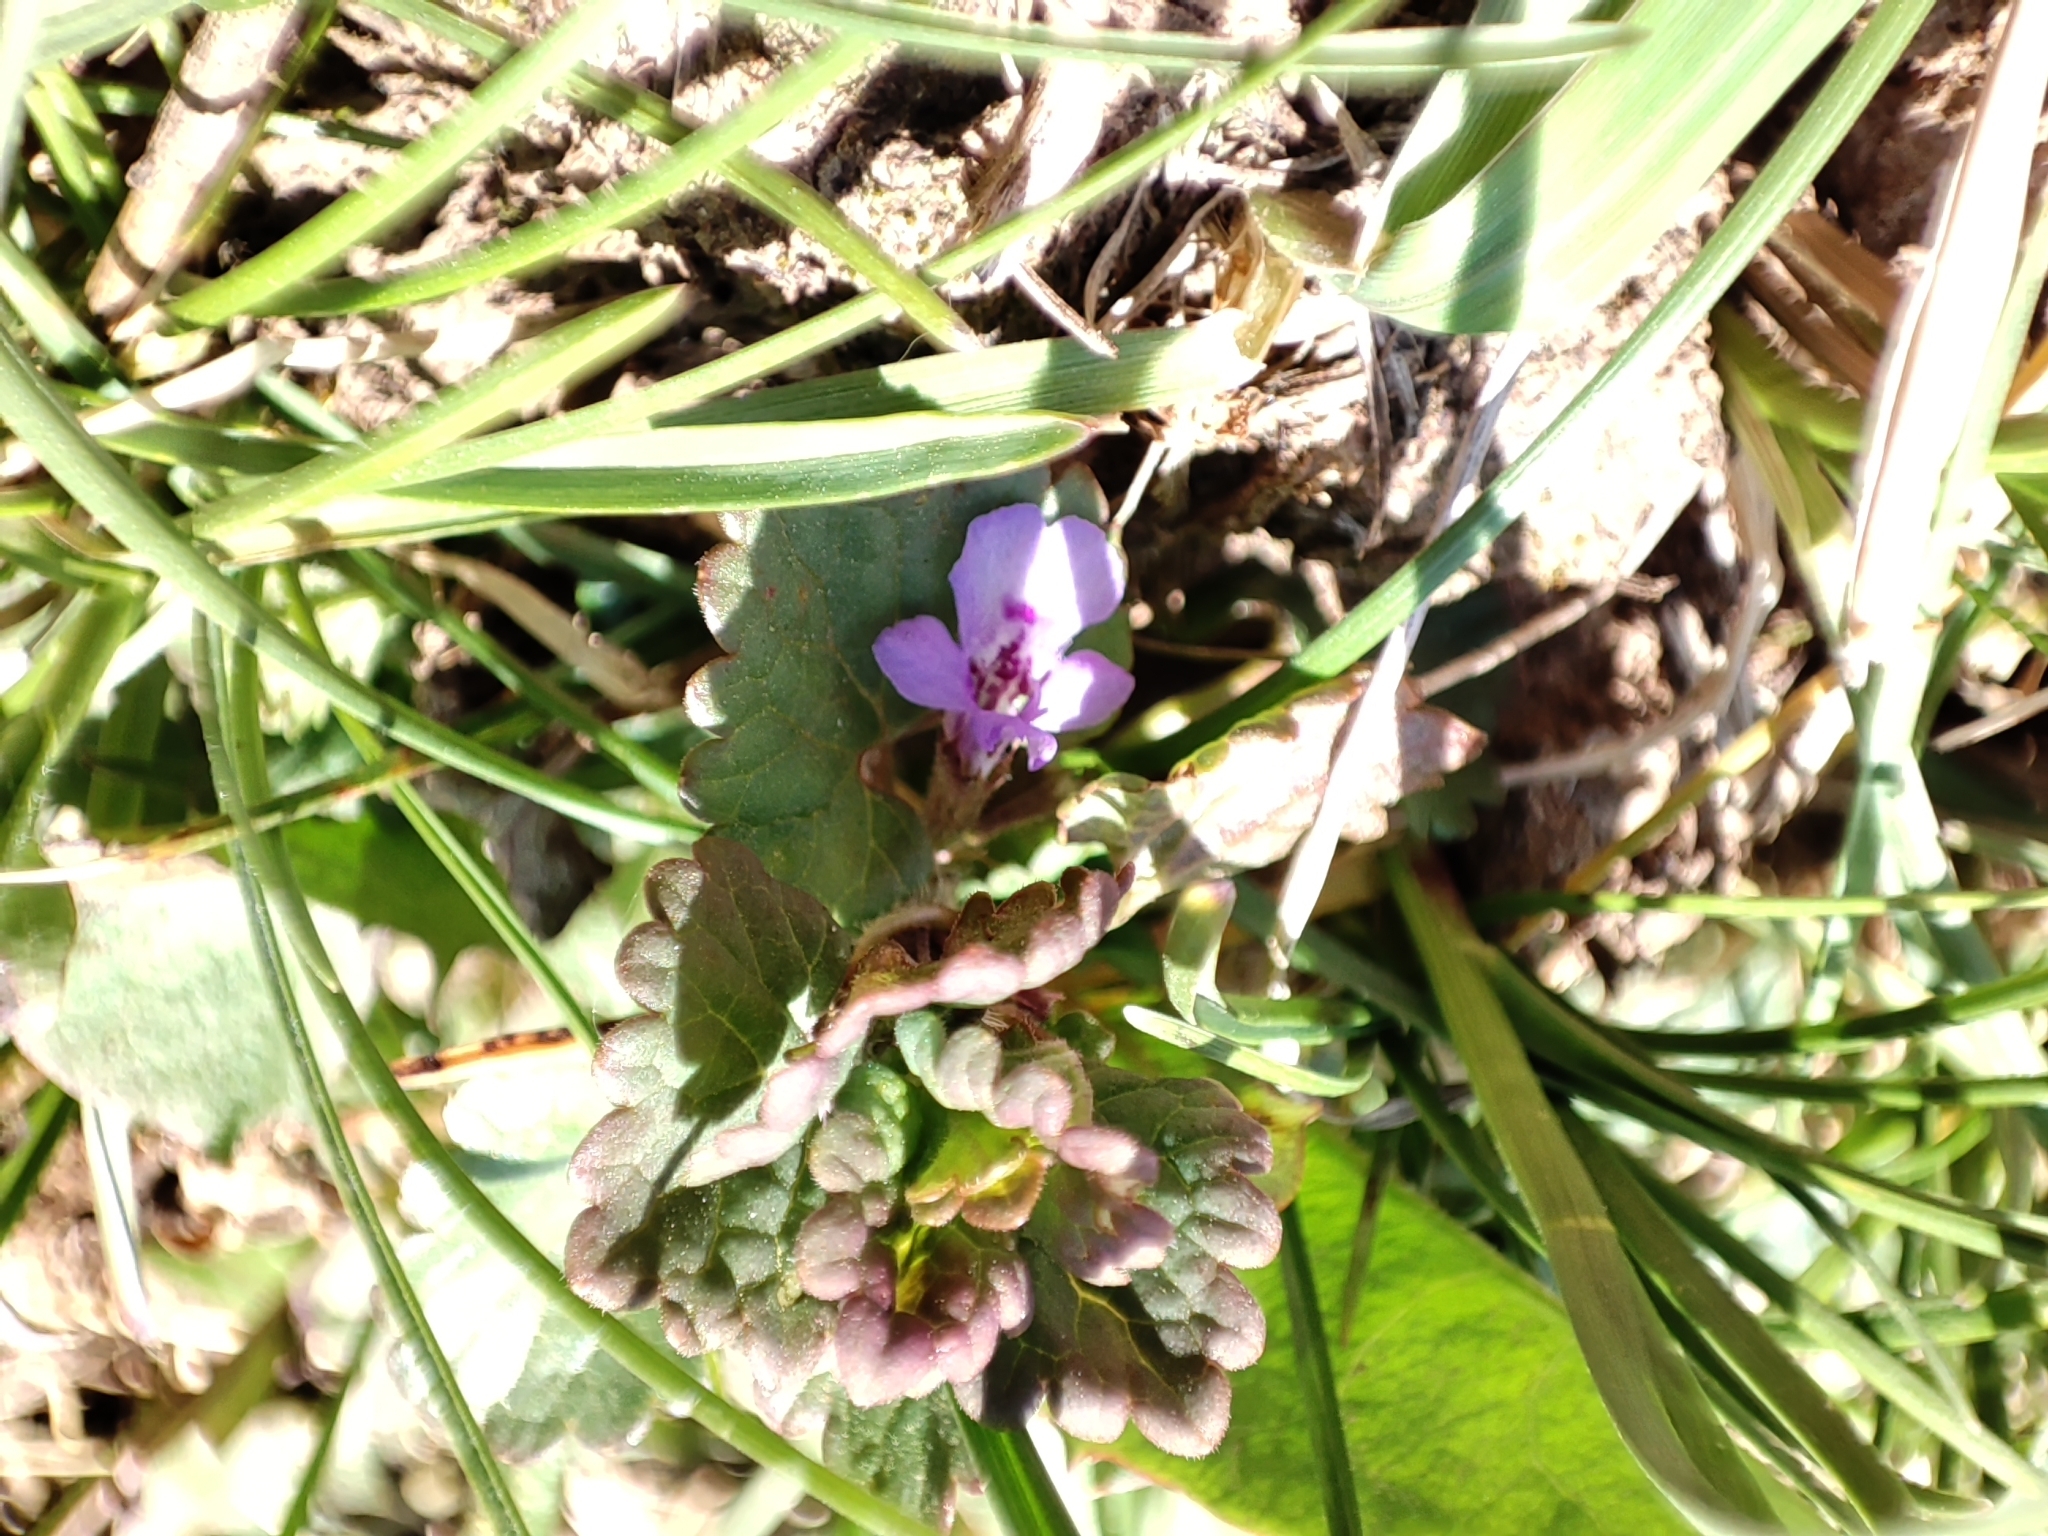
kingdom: Plantae
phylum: Tracheophyta
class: Magnoliopsida
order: Lamiales
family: Lamiaceae
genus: Glechoma
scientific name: Glechoma hederacea
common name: Ground ivy
